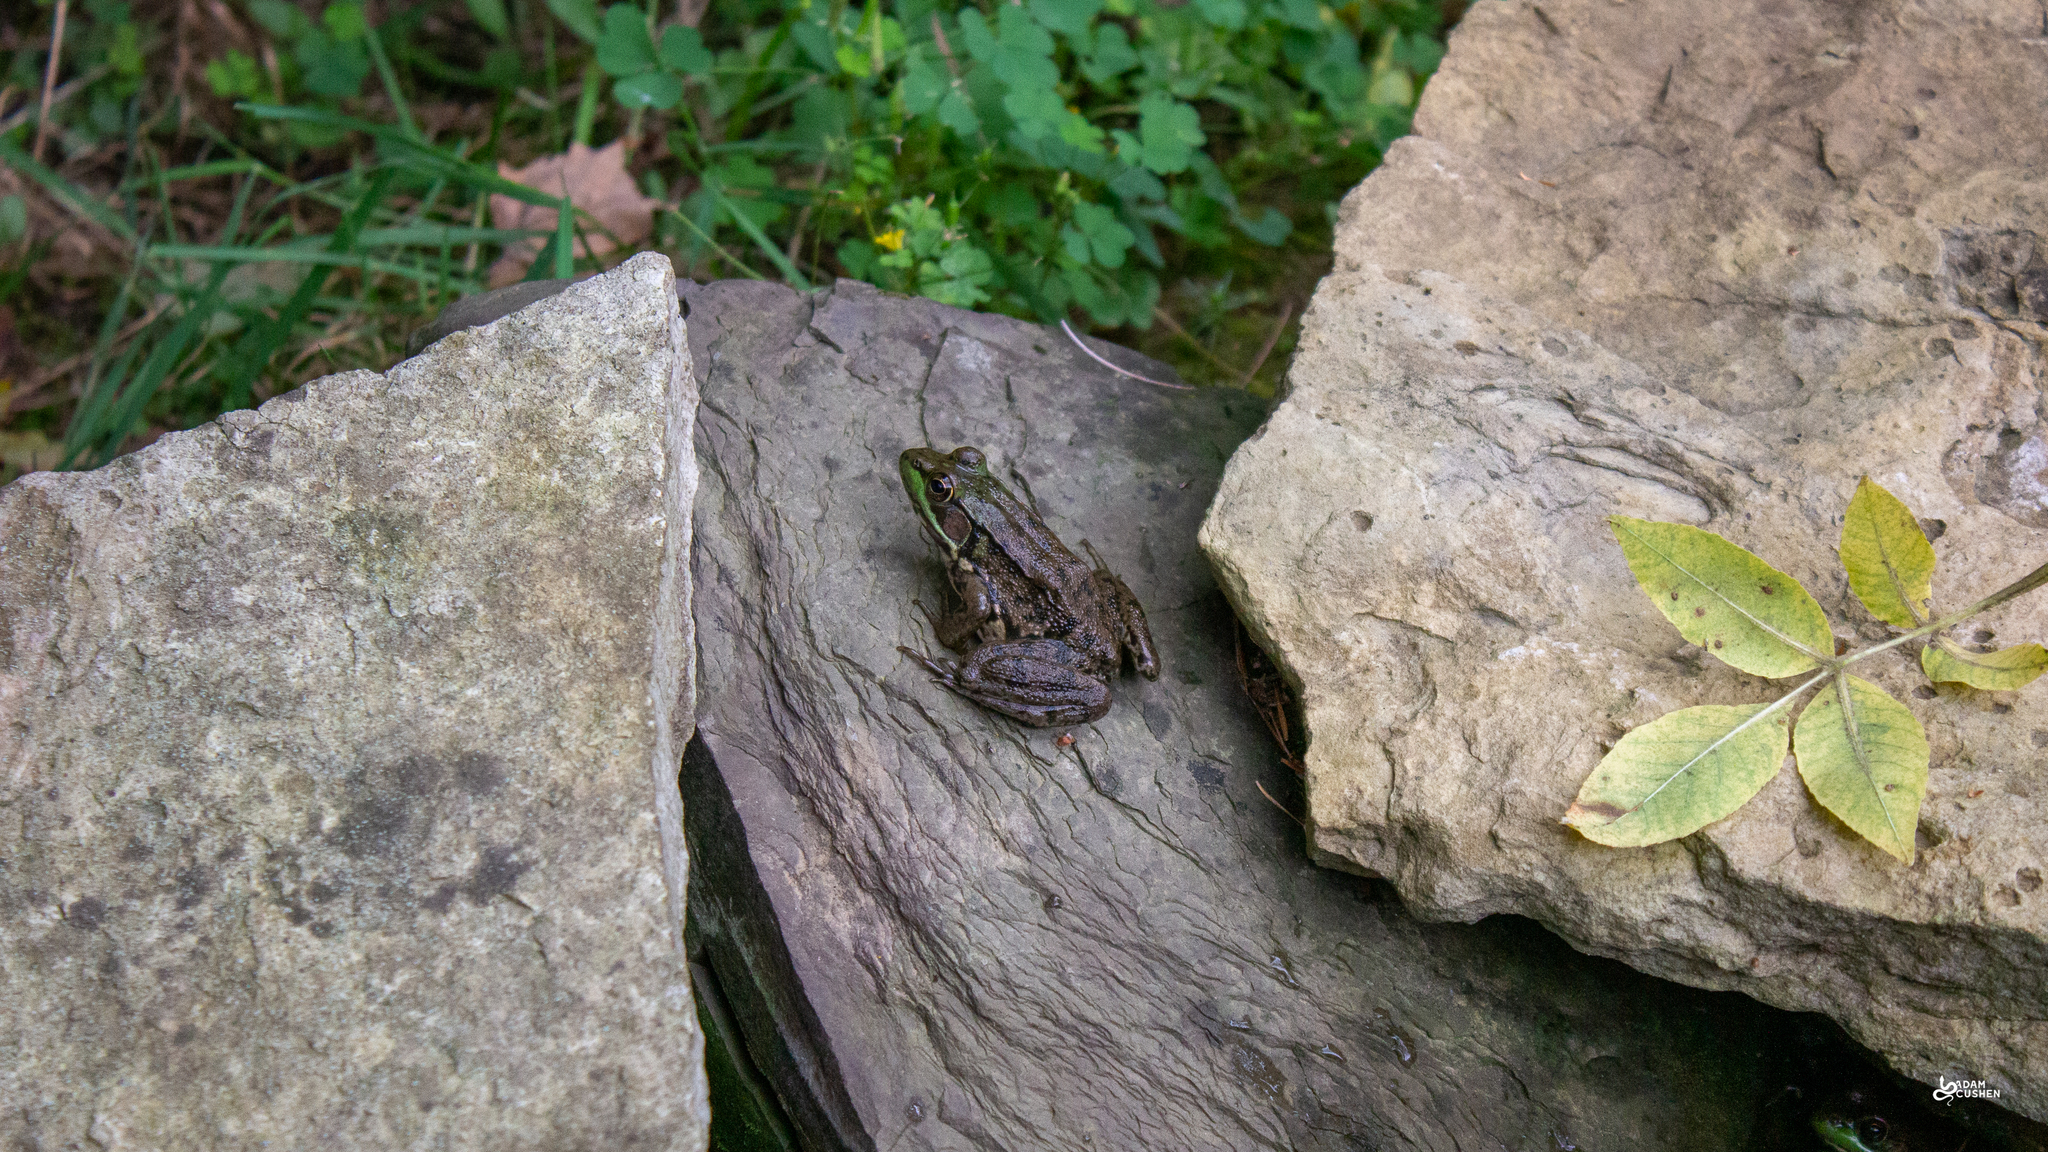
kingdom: Animalia
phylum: Chordata
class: Amphibia
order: Anura
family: Ranidae
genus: Lithobates
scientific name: Lithobates clamitans
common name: Green frog
